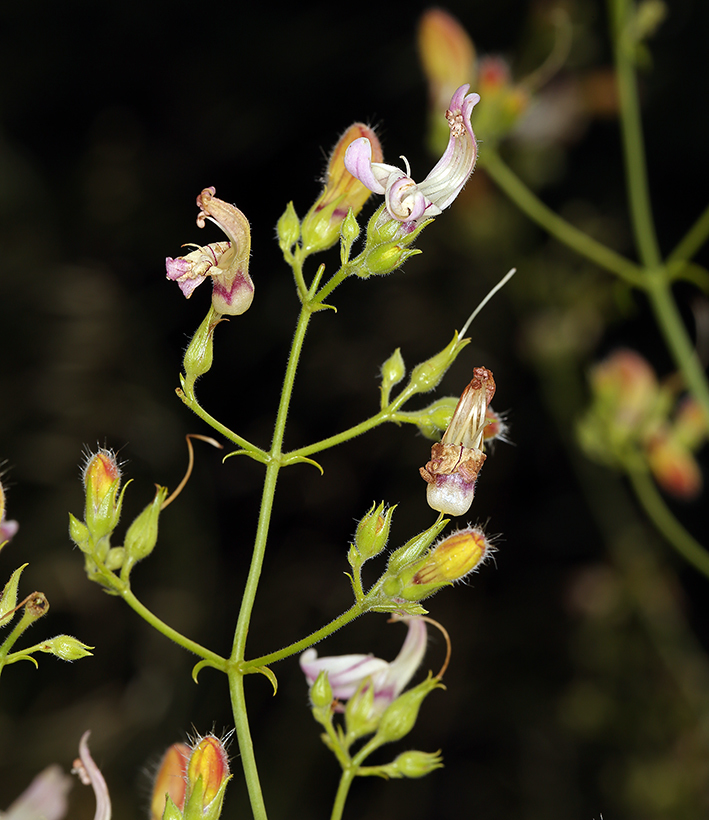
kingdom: Plantae
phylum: Tracheophyta
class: Magnoliopsida
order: Lamiales
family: Plantaginaceae
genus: Keckiella
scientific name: Keckiella breviflora
